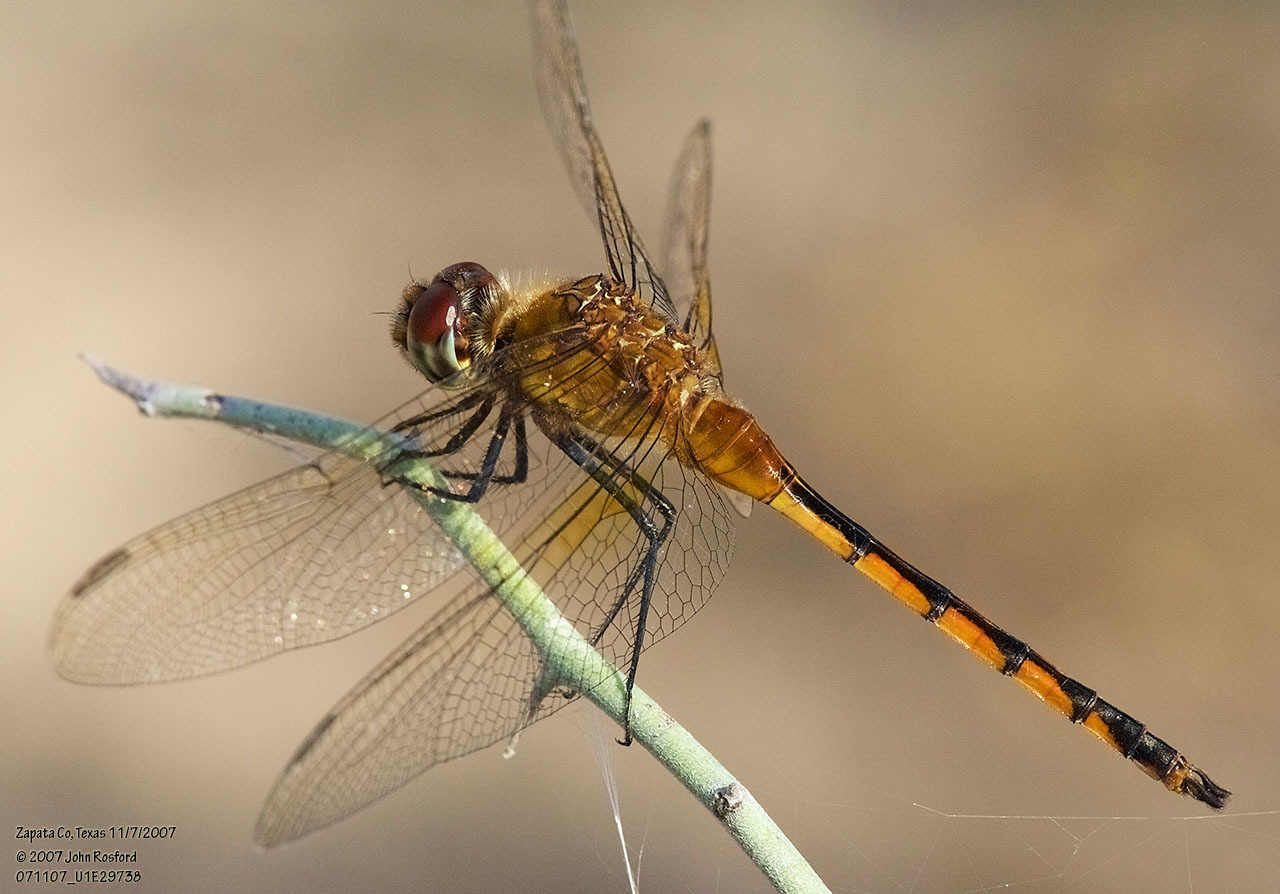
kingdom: Animalia
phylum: Arthropoda
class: Insecta
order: Odonata
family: Libellulidae
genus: Brachymesia
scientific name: Brachymesia herbida
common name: Tawny pennant
